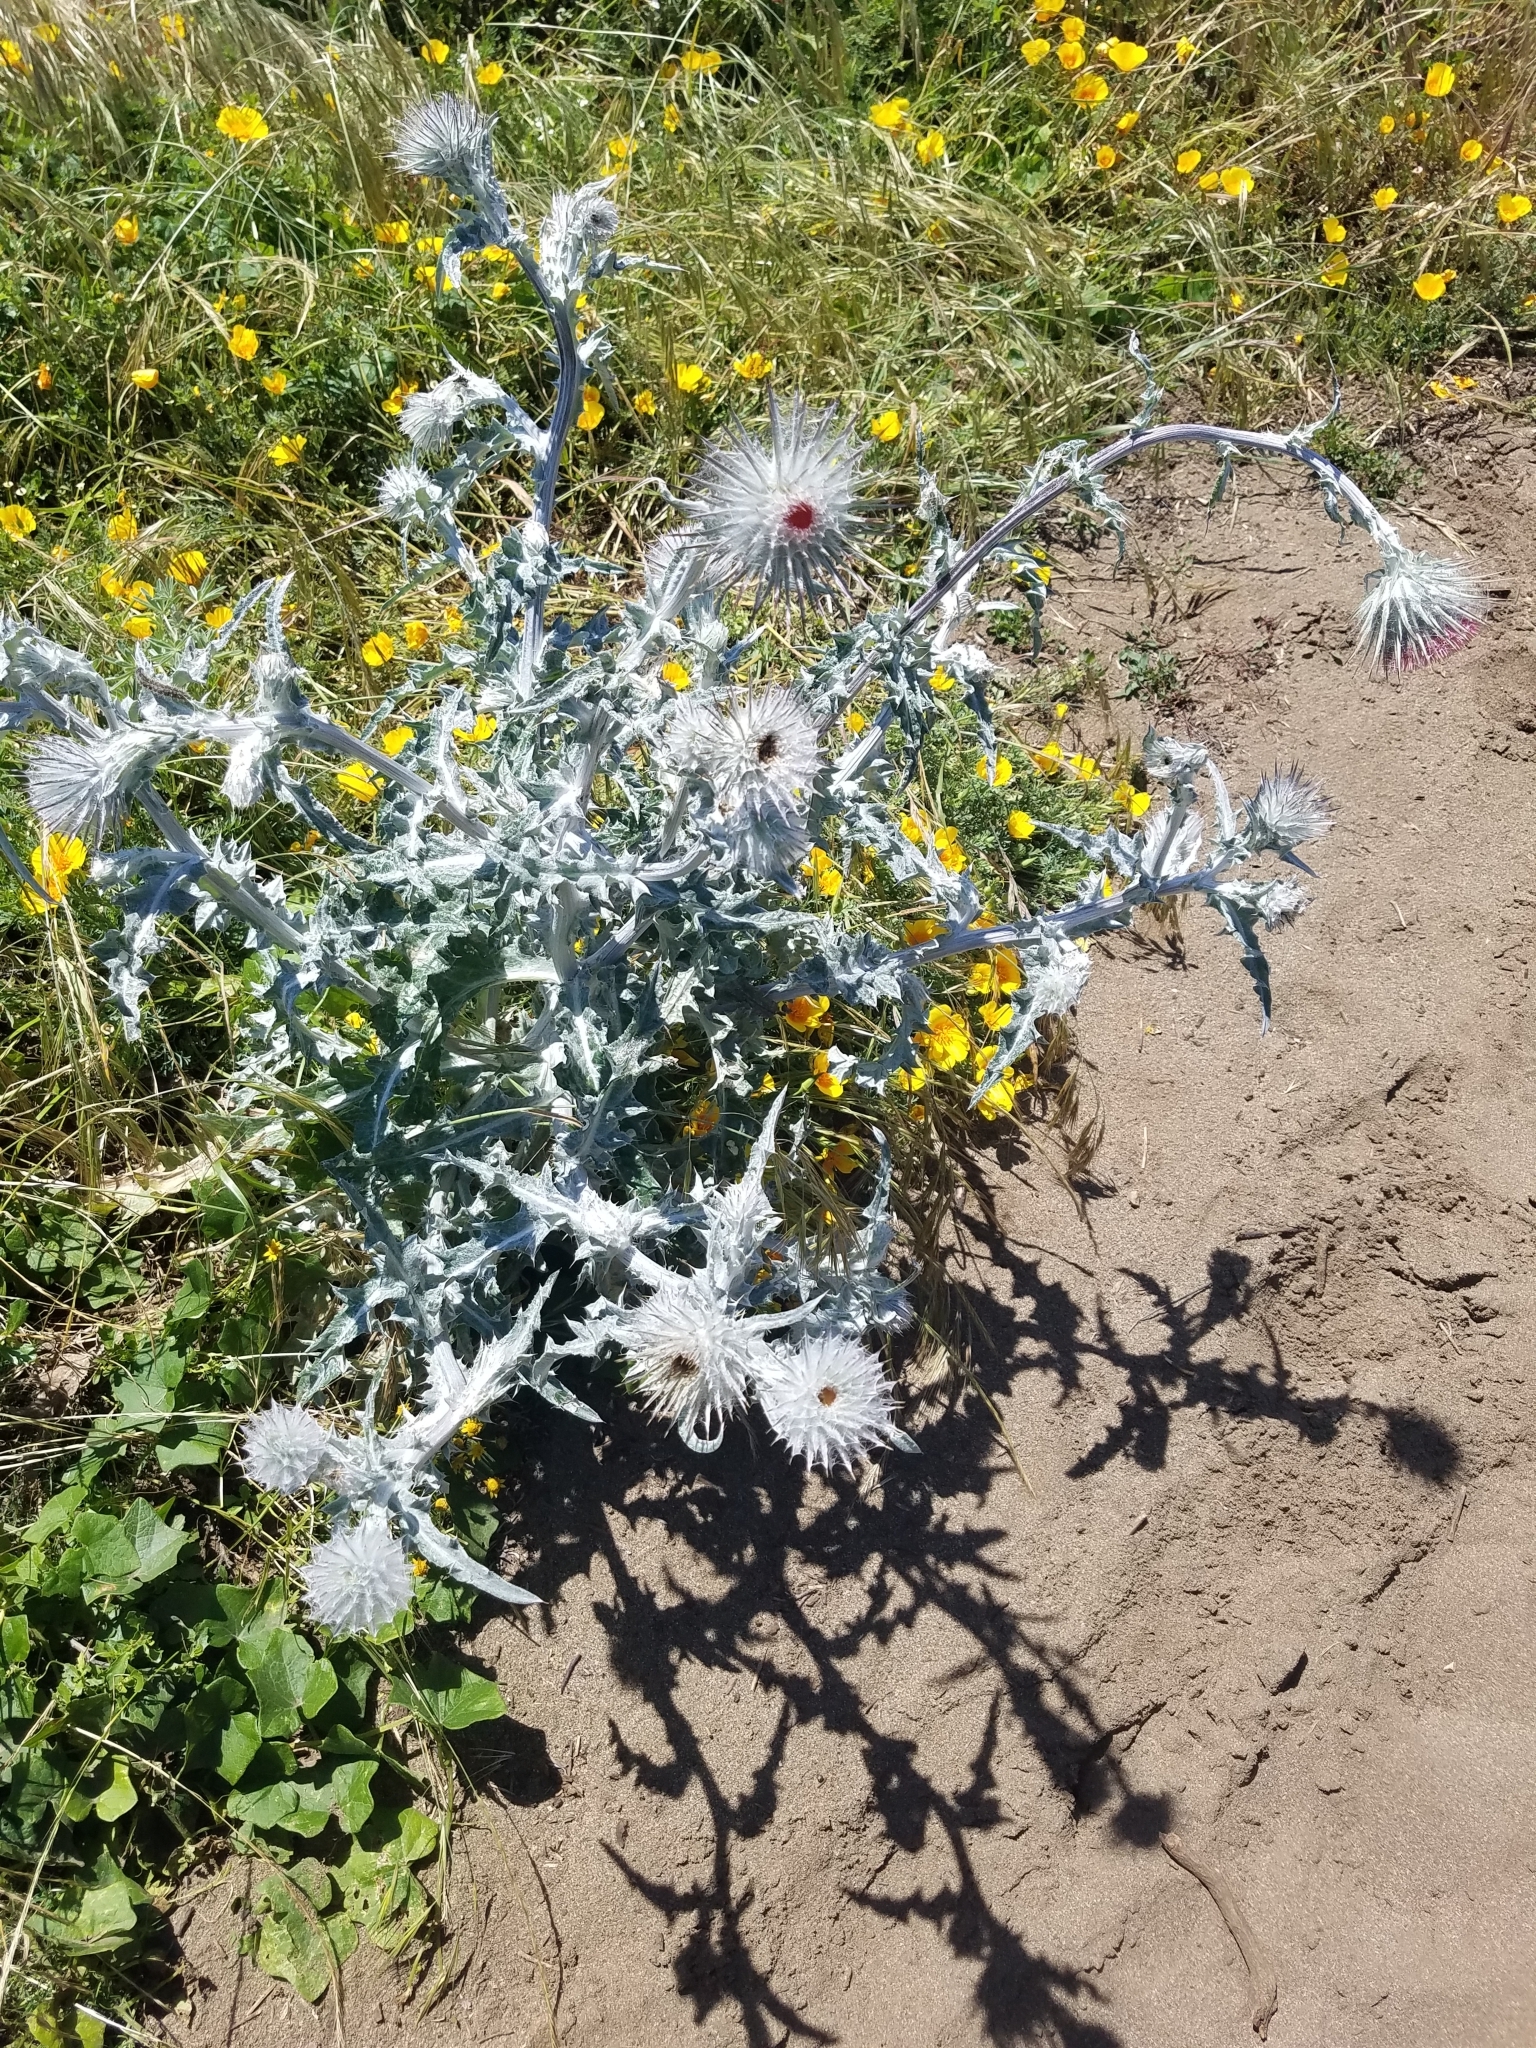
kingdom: Plantae
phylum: Tracheophyta
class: Magnoliopsida
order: Asterales
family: Asteraceae
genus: Cirsium
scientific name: Cirsium occidentale
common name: Western thistle
